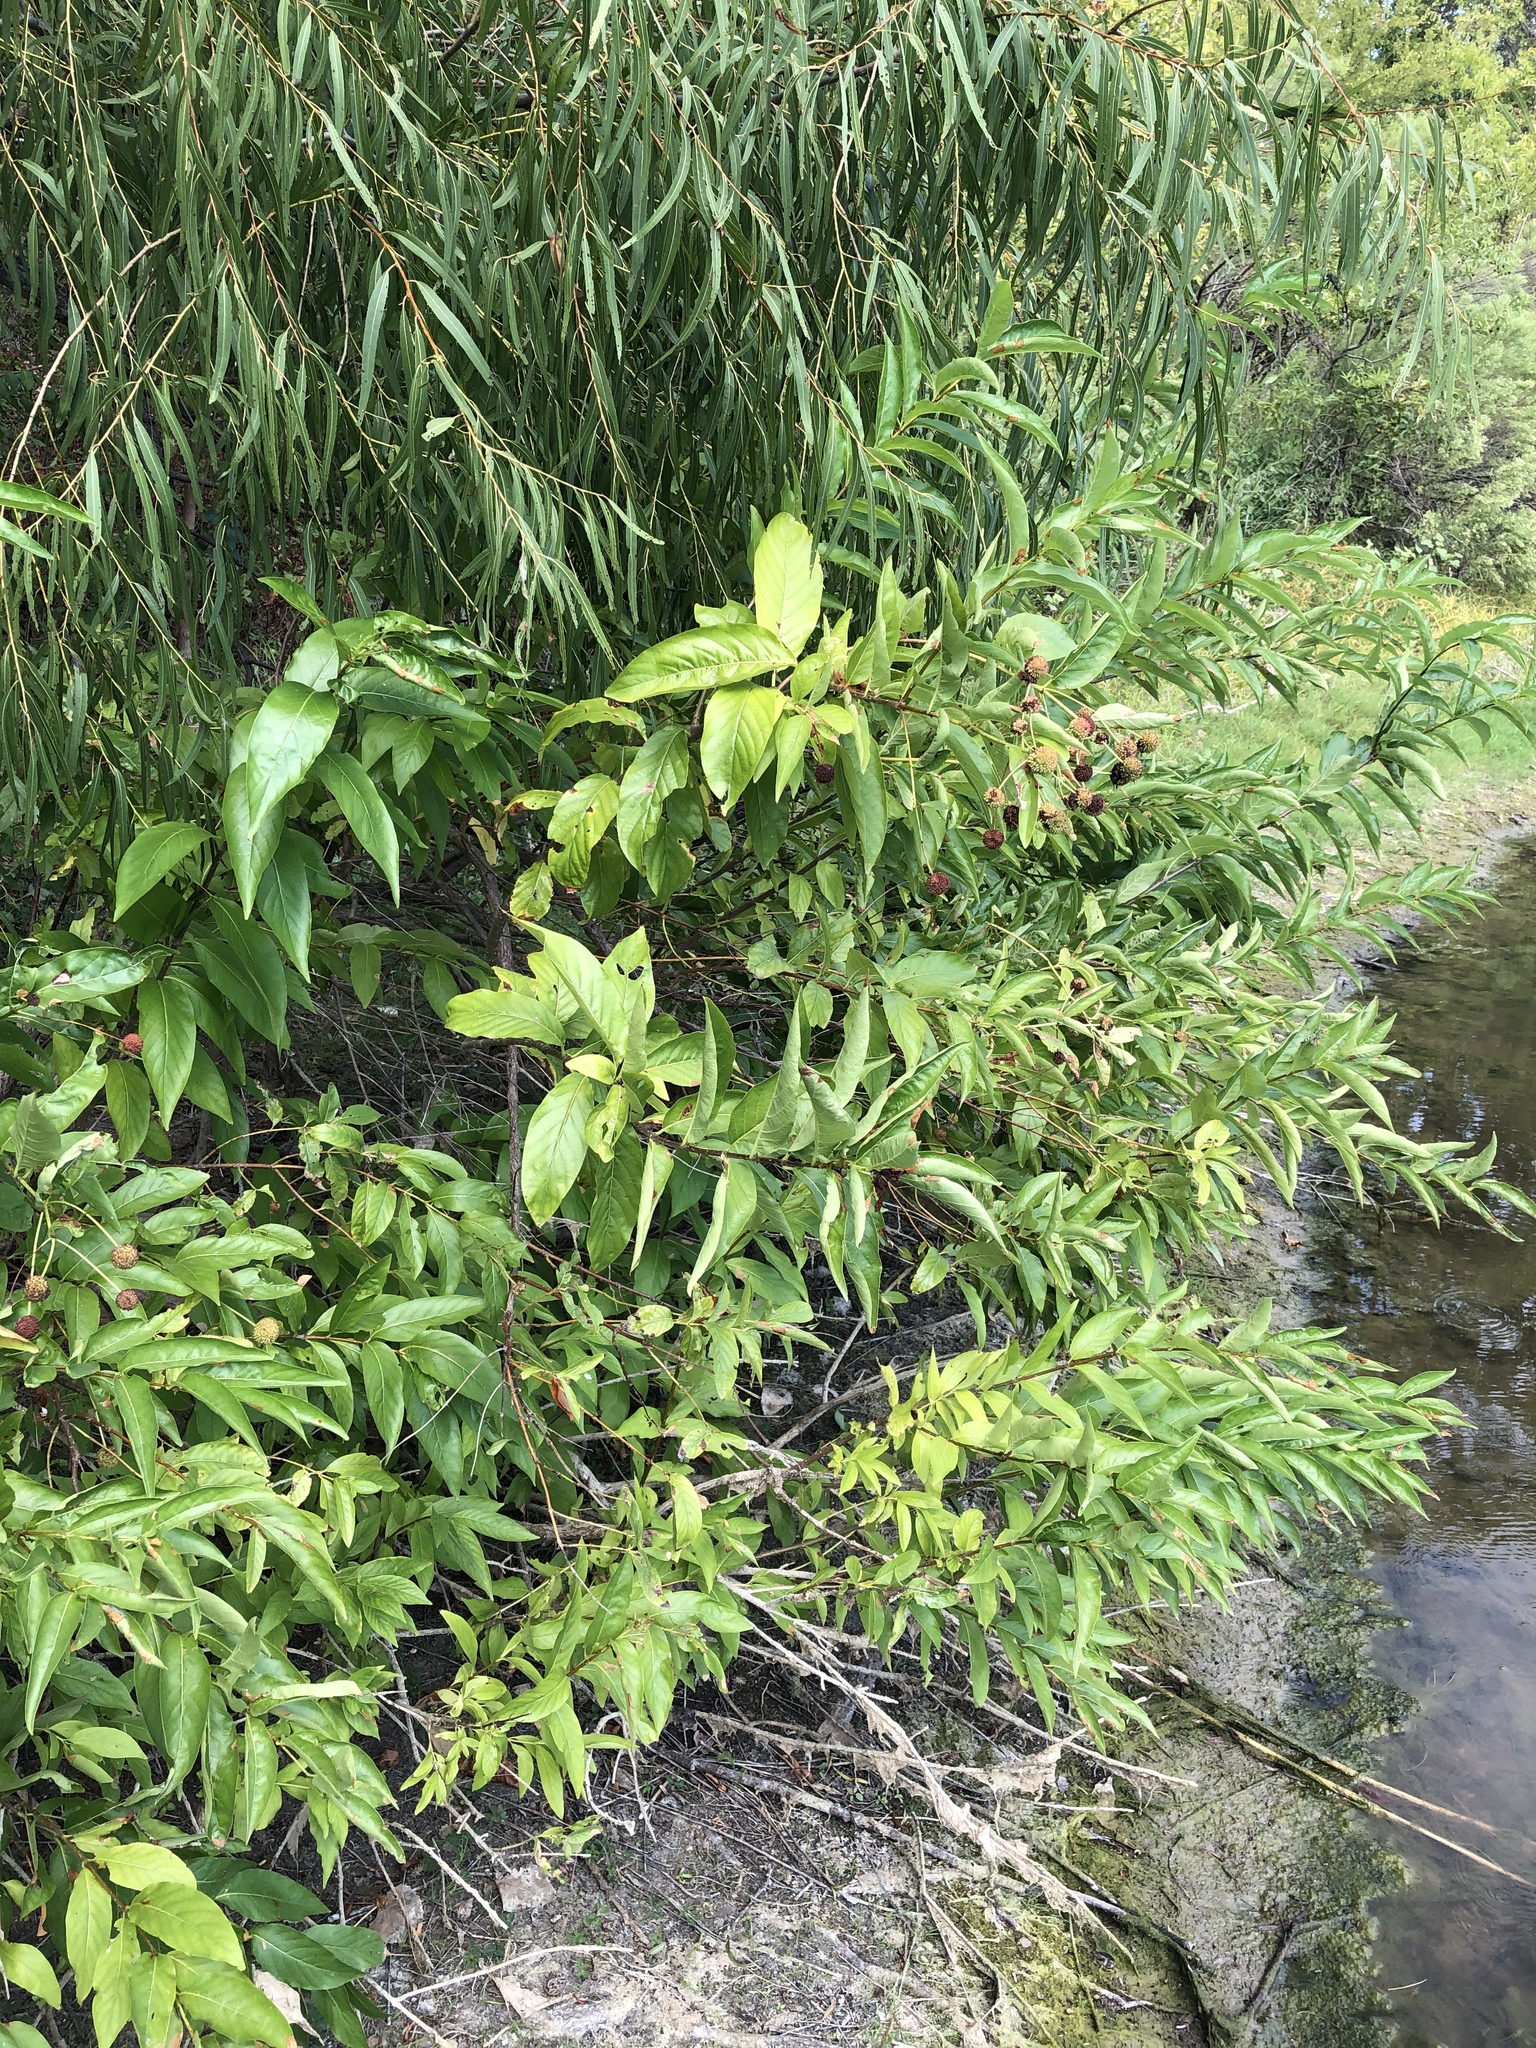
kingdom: Plantae
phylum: Tracheophyta
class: Magnoliopsida
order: Gentianales
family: Rubiaceae
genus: Cephalanthus
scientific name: Cephalanthus occidentalis
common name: Button-willow
